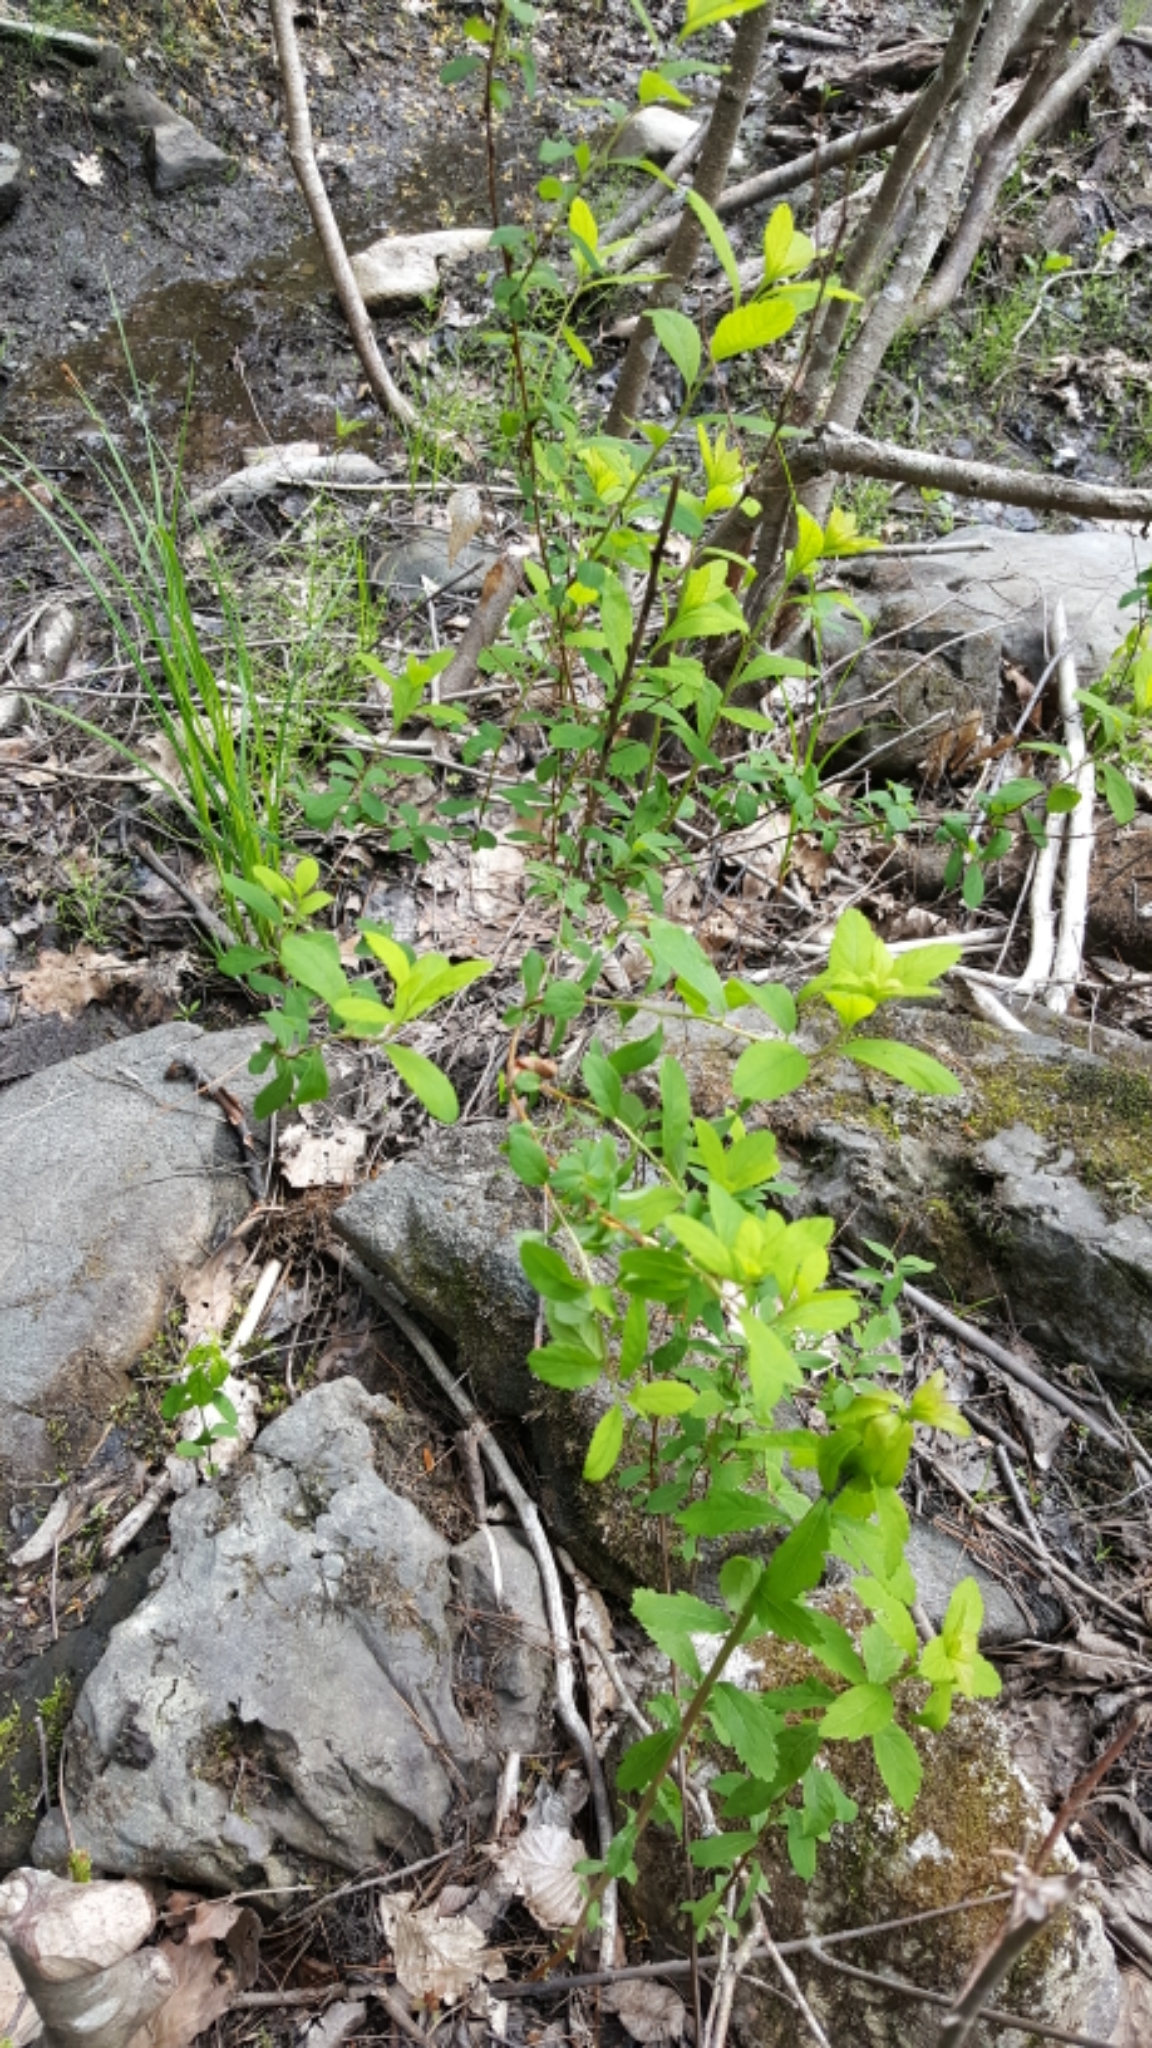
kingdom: Plantae
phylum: Tracheophyta
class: Magnoliopsida
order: Rosales
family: Rosaceae
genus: Spiraea
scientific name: Spiraea alba
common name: Pale bridewort
